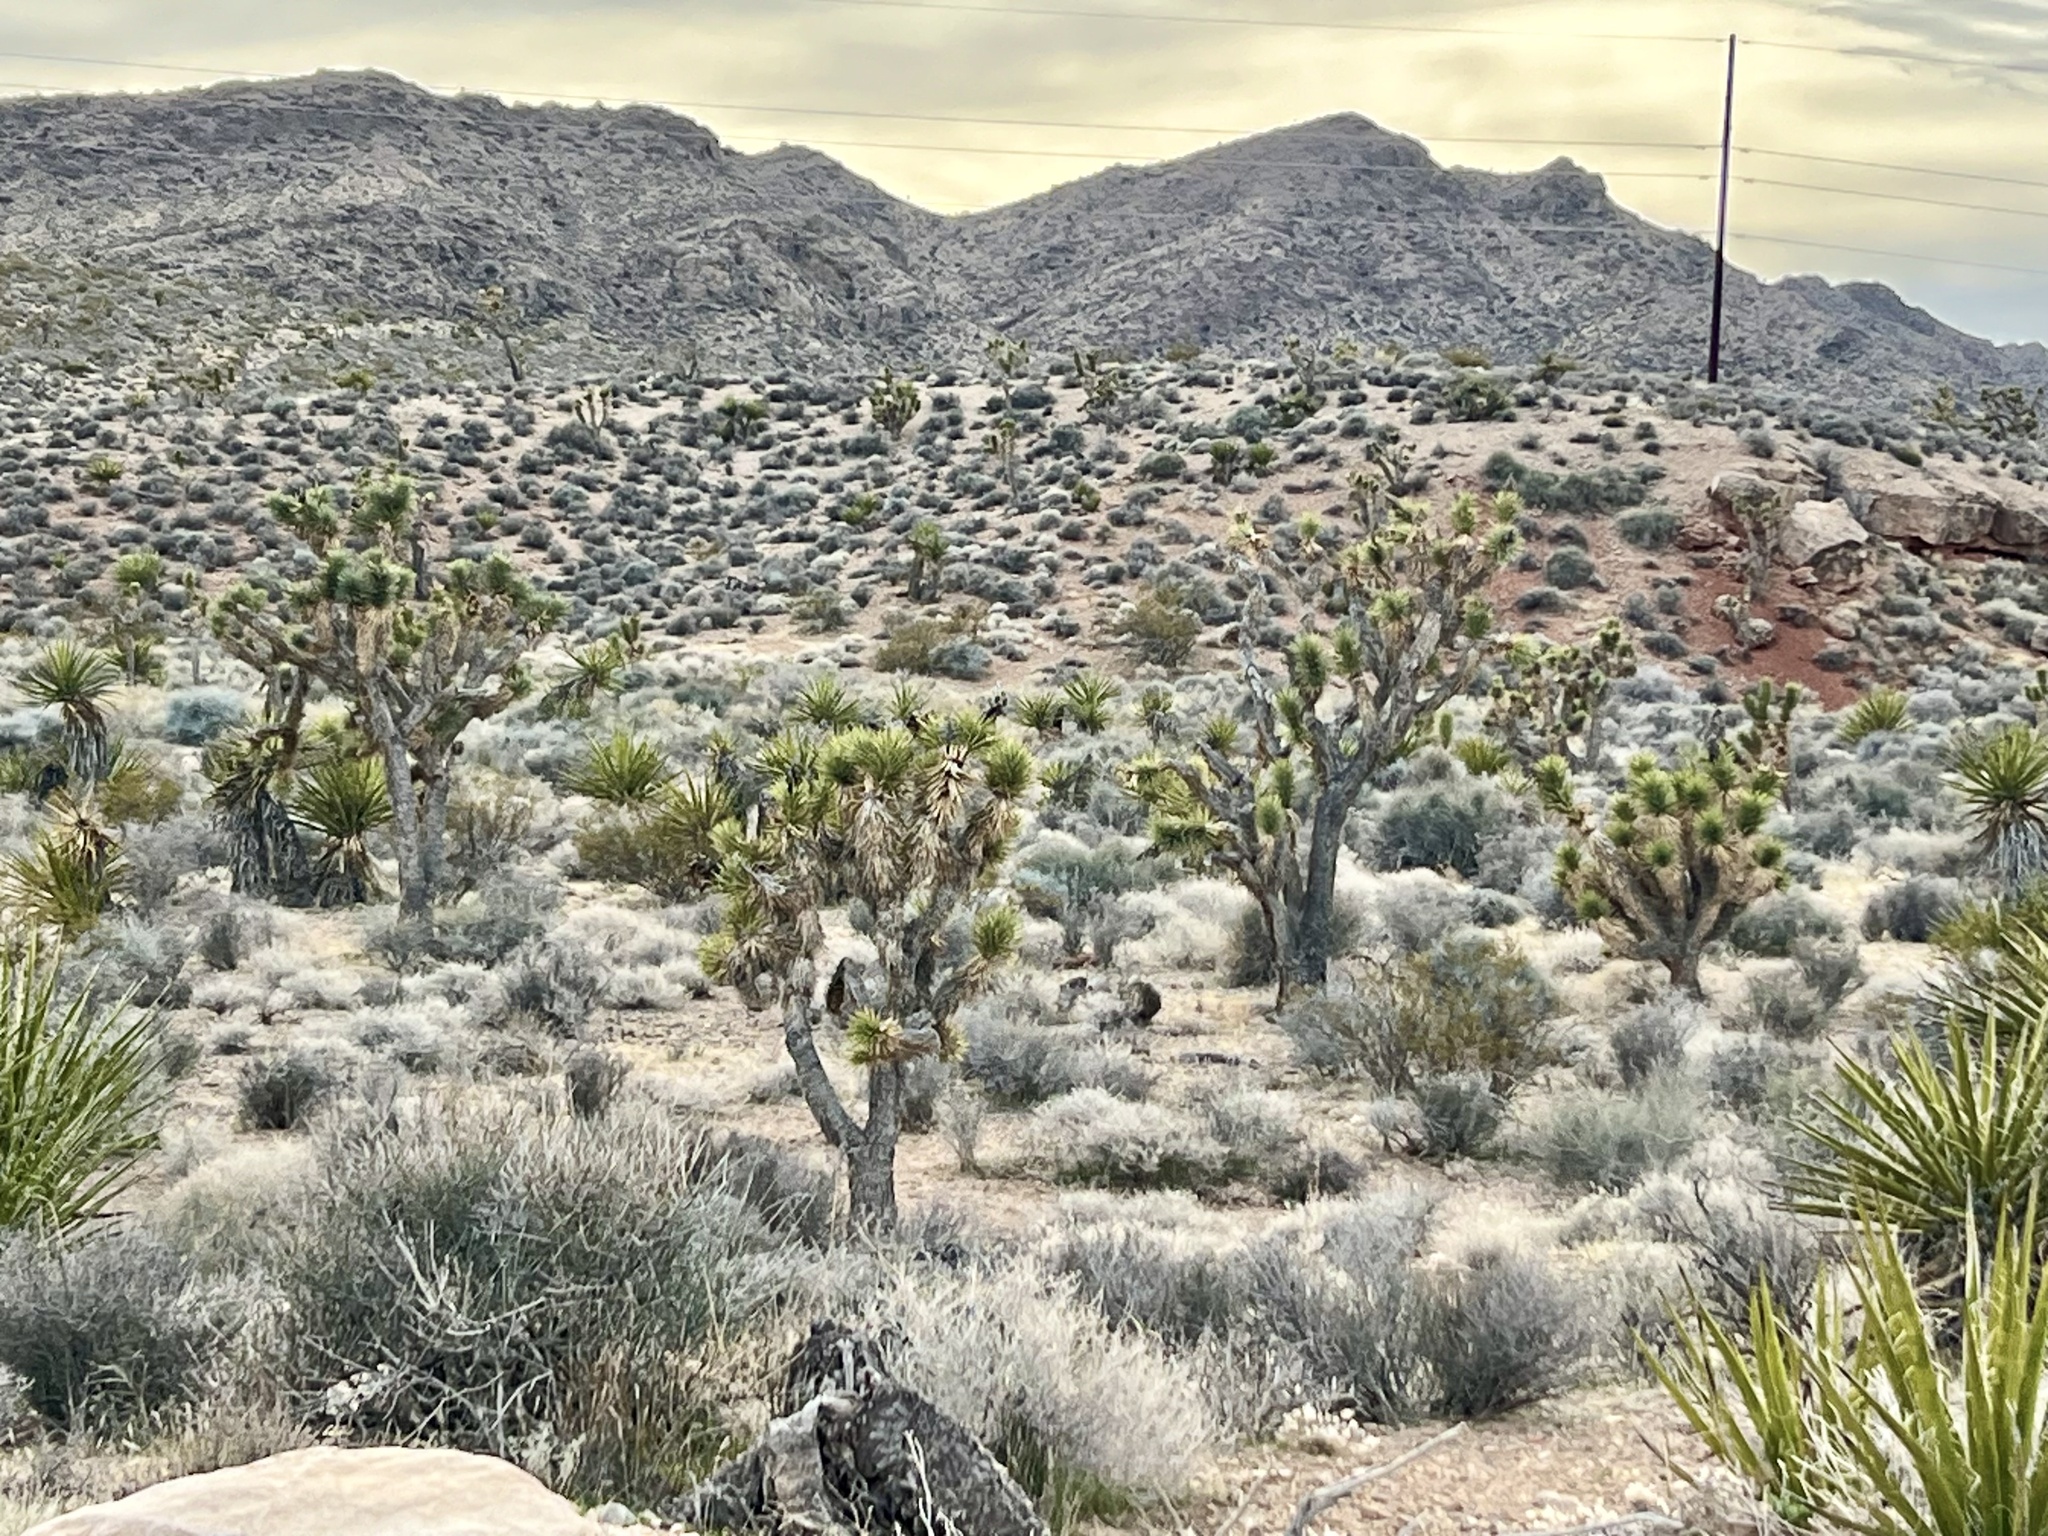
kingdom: Plantae
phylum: Tracheophyta
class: Liliopsida
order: Asparagales
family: Asparagaceae
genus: Yucca
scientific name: Yucca brevifolia
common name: Joshua tree
